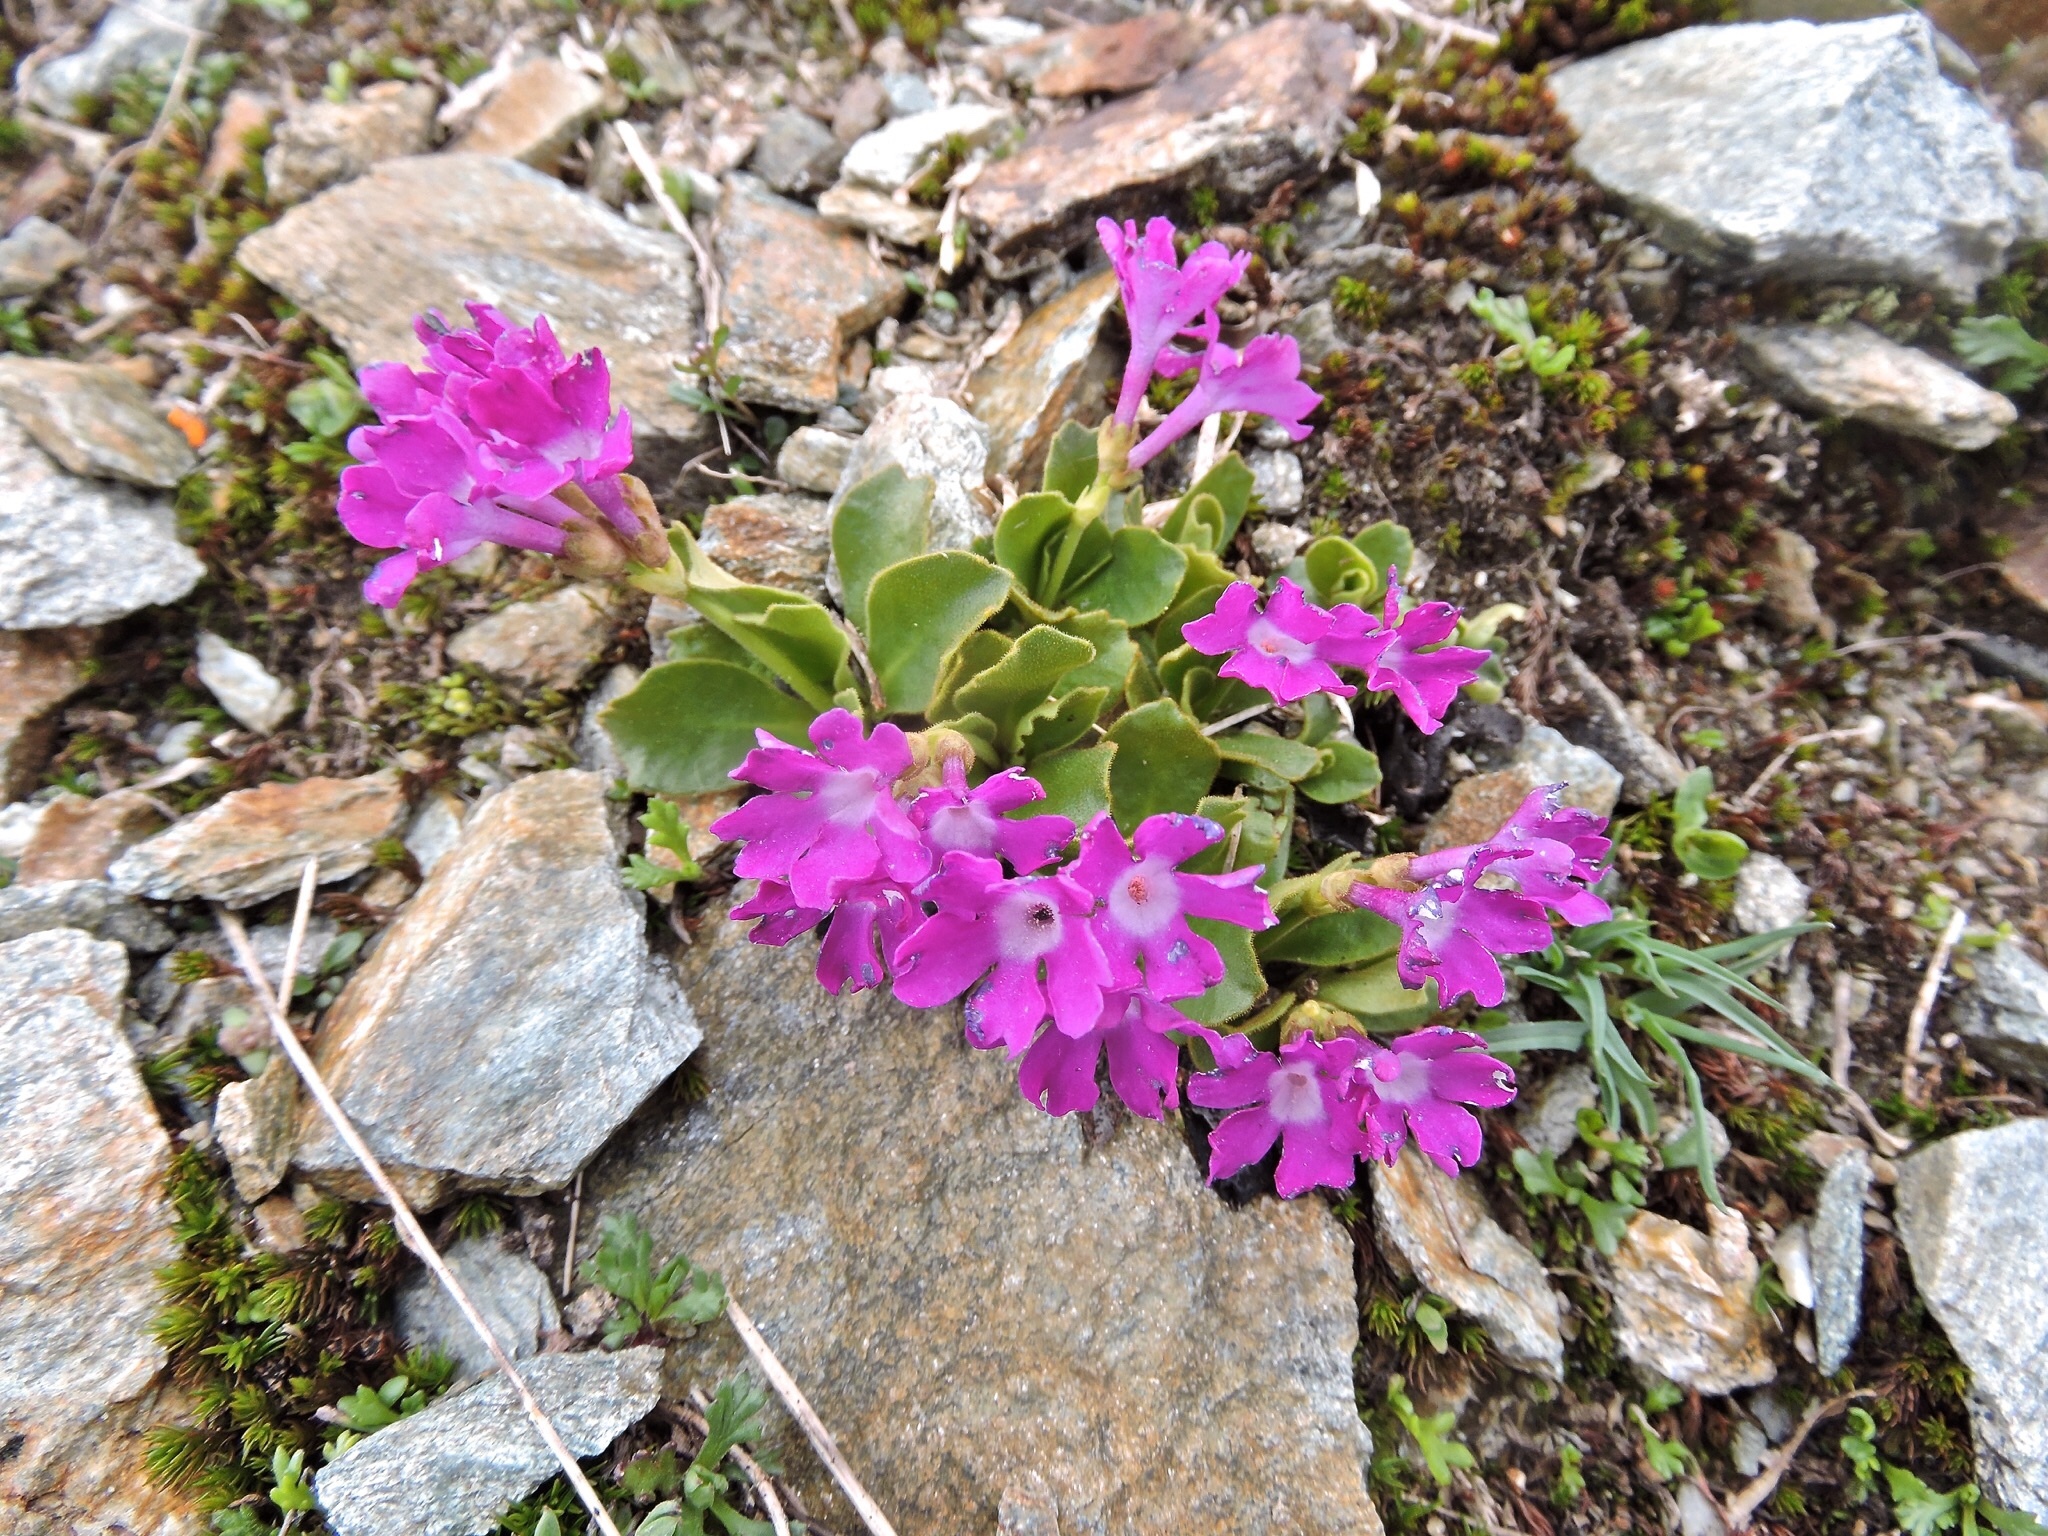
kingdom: Plantae
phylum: Tracheophyta
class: Magnoliopsida
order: Ericales
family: Primulaceae
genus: Primula
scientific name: Primula daonensis
